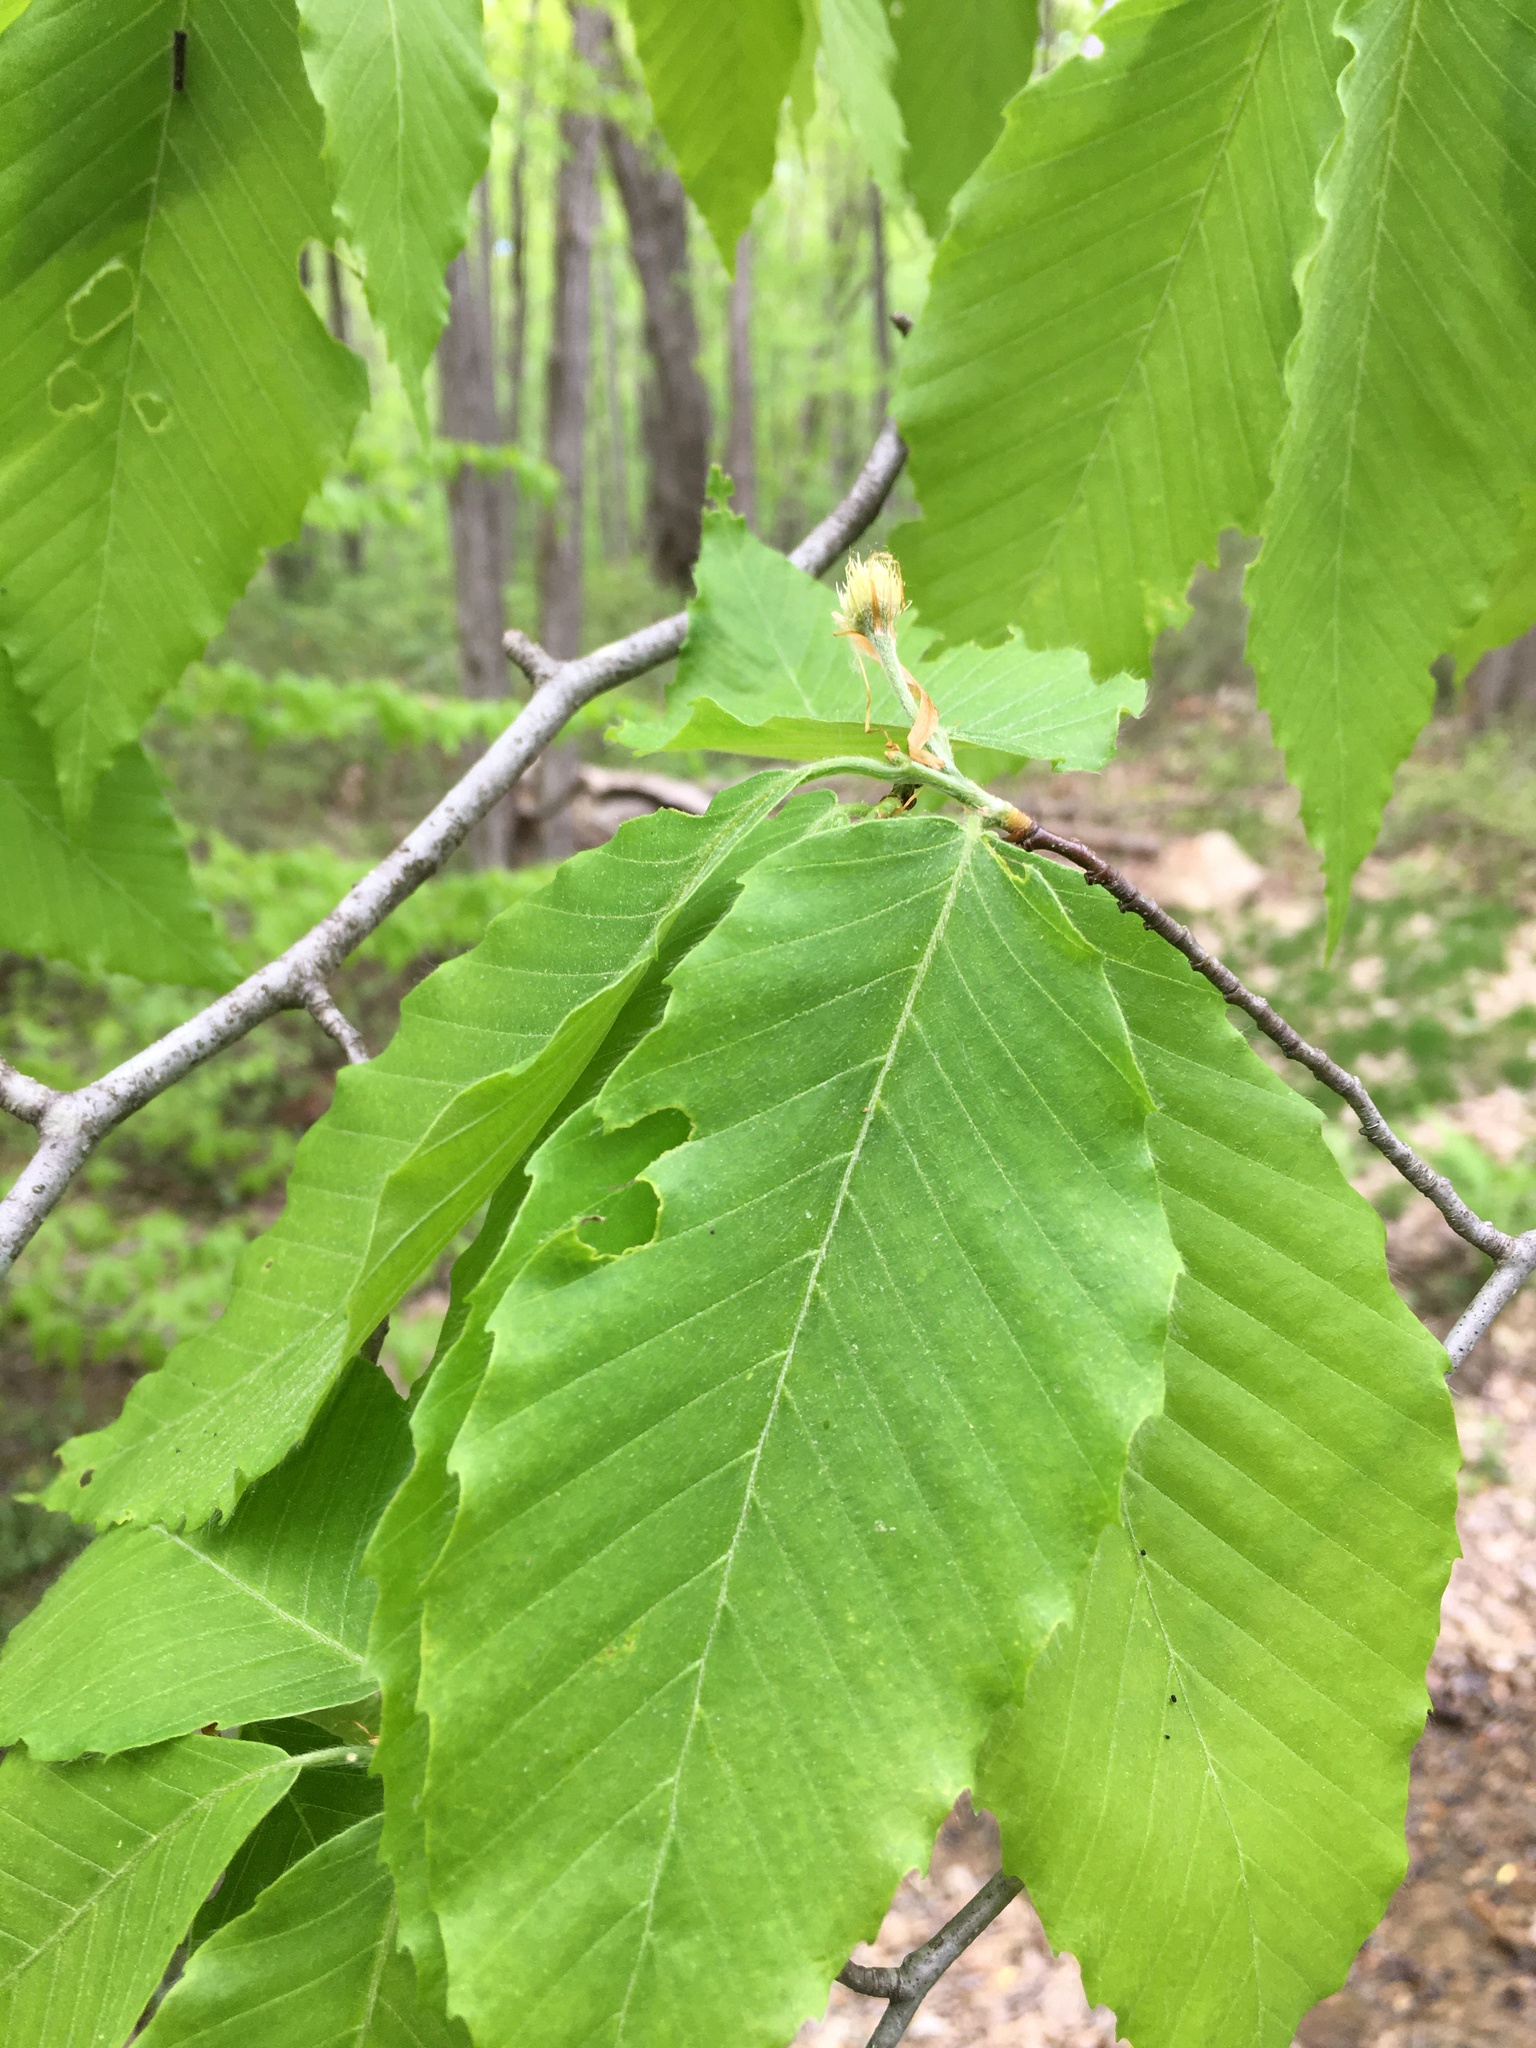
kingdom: Plantae
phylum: Tracheophyta
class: Magnoliopsida
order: Fagales
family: Fagaceae
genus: Fagus
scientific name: Fagus grandifolia
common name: American beech
